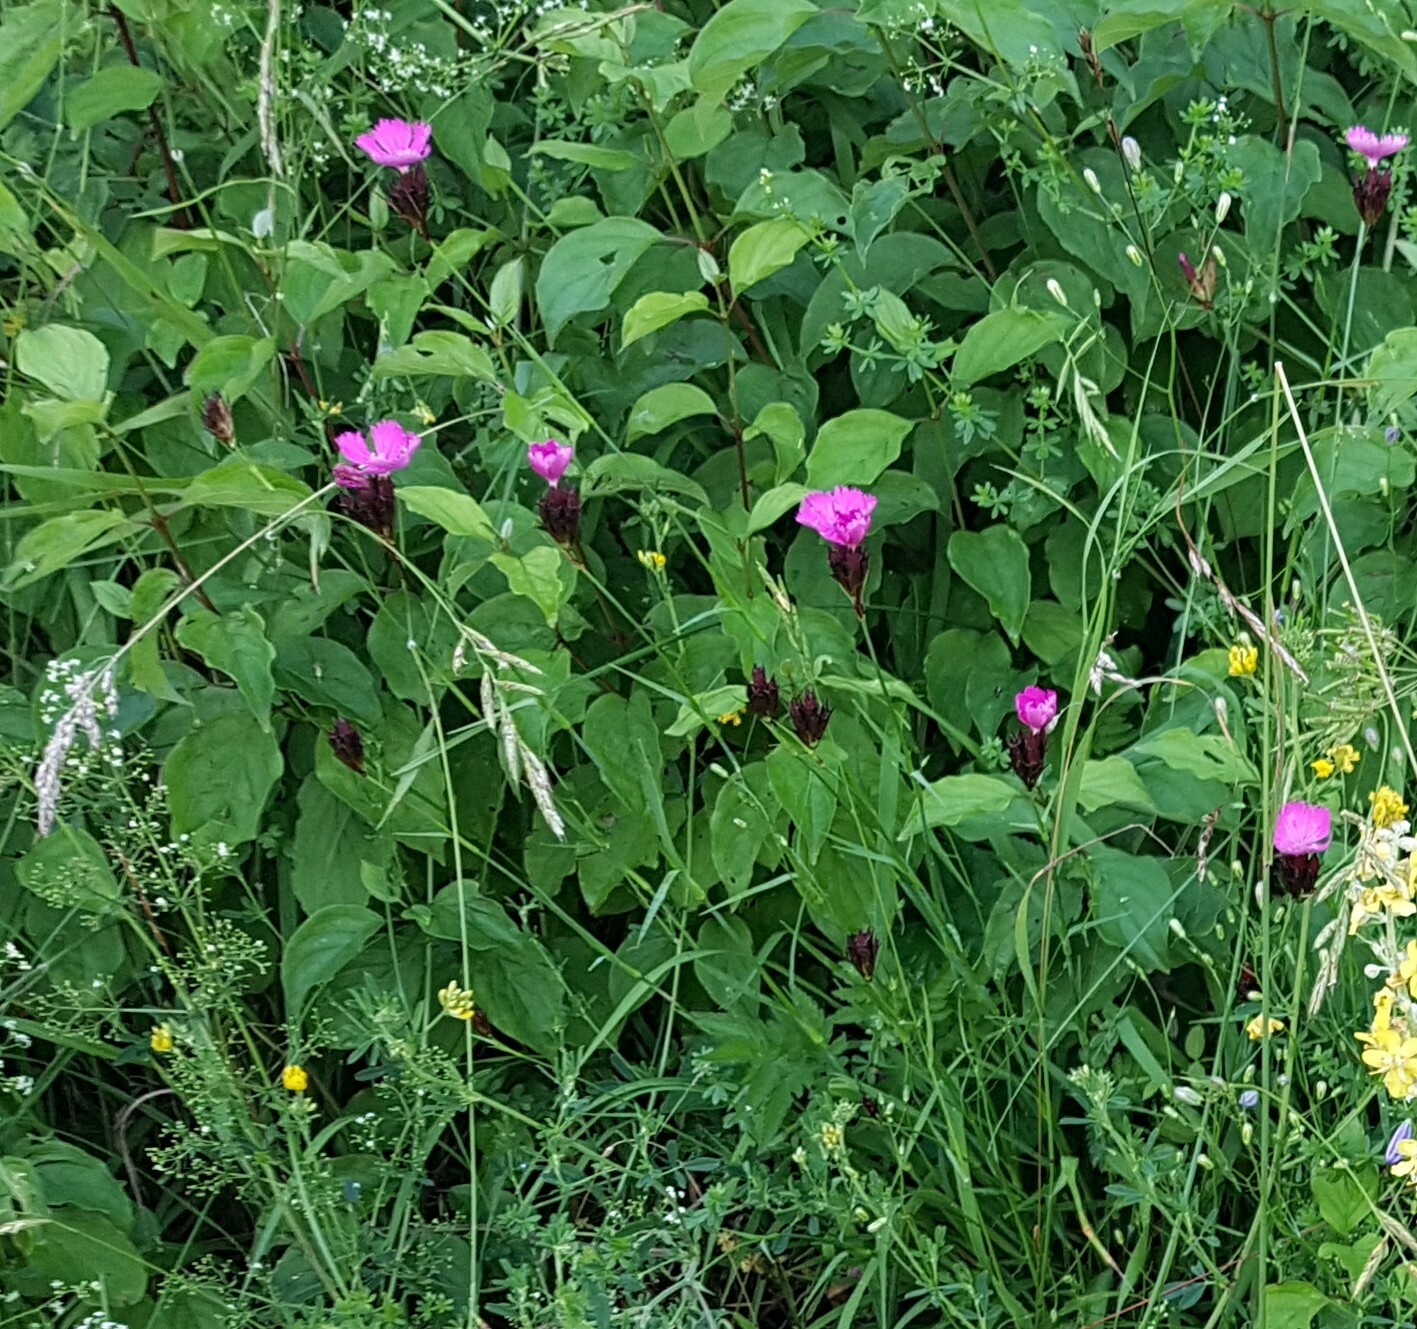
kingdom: Plantae
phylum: Tracheophyta
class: Magnoliopsida
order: Caryophyllales
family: Caryophyllaceae
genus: Dianthus
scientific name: Dianthus carthusianorum
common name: Carthusian pink
